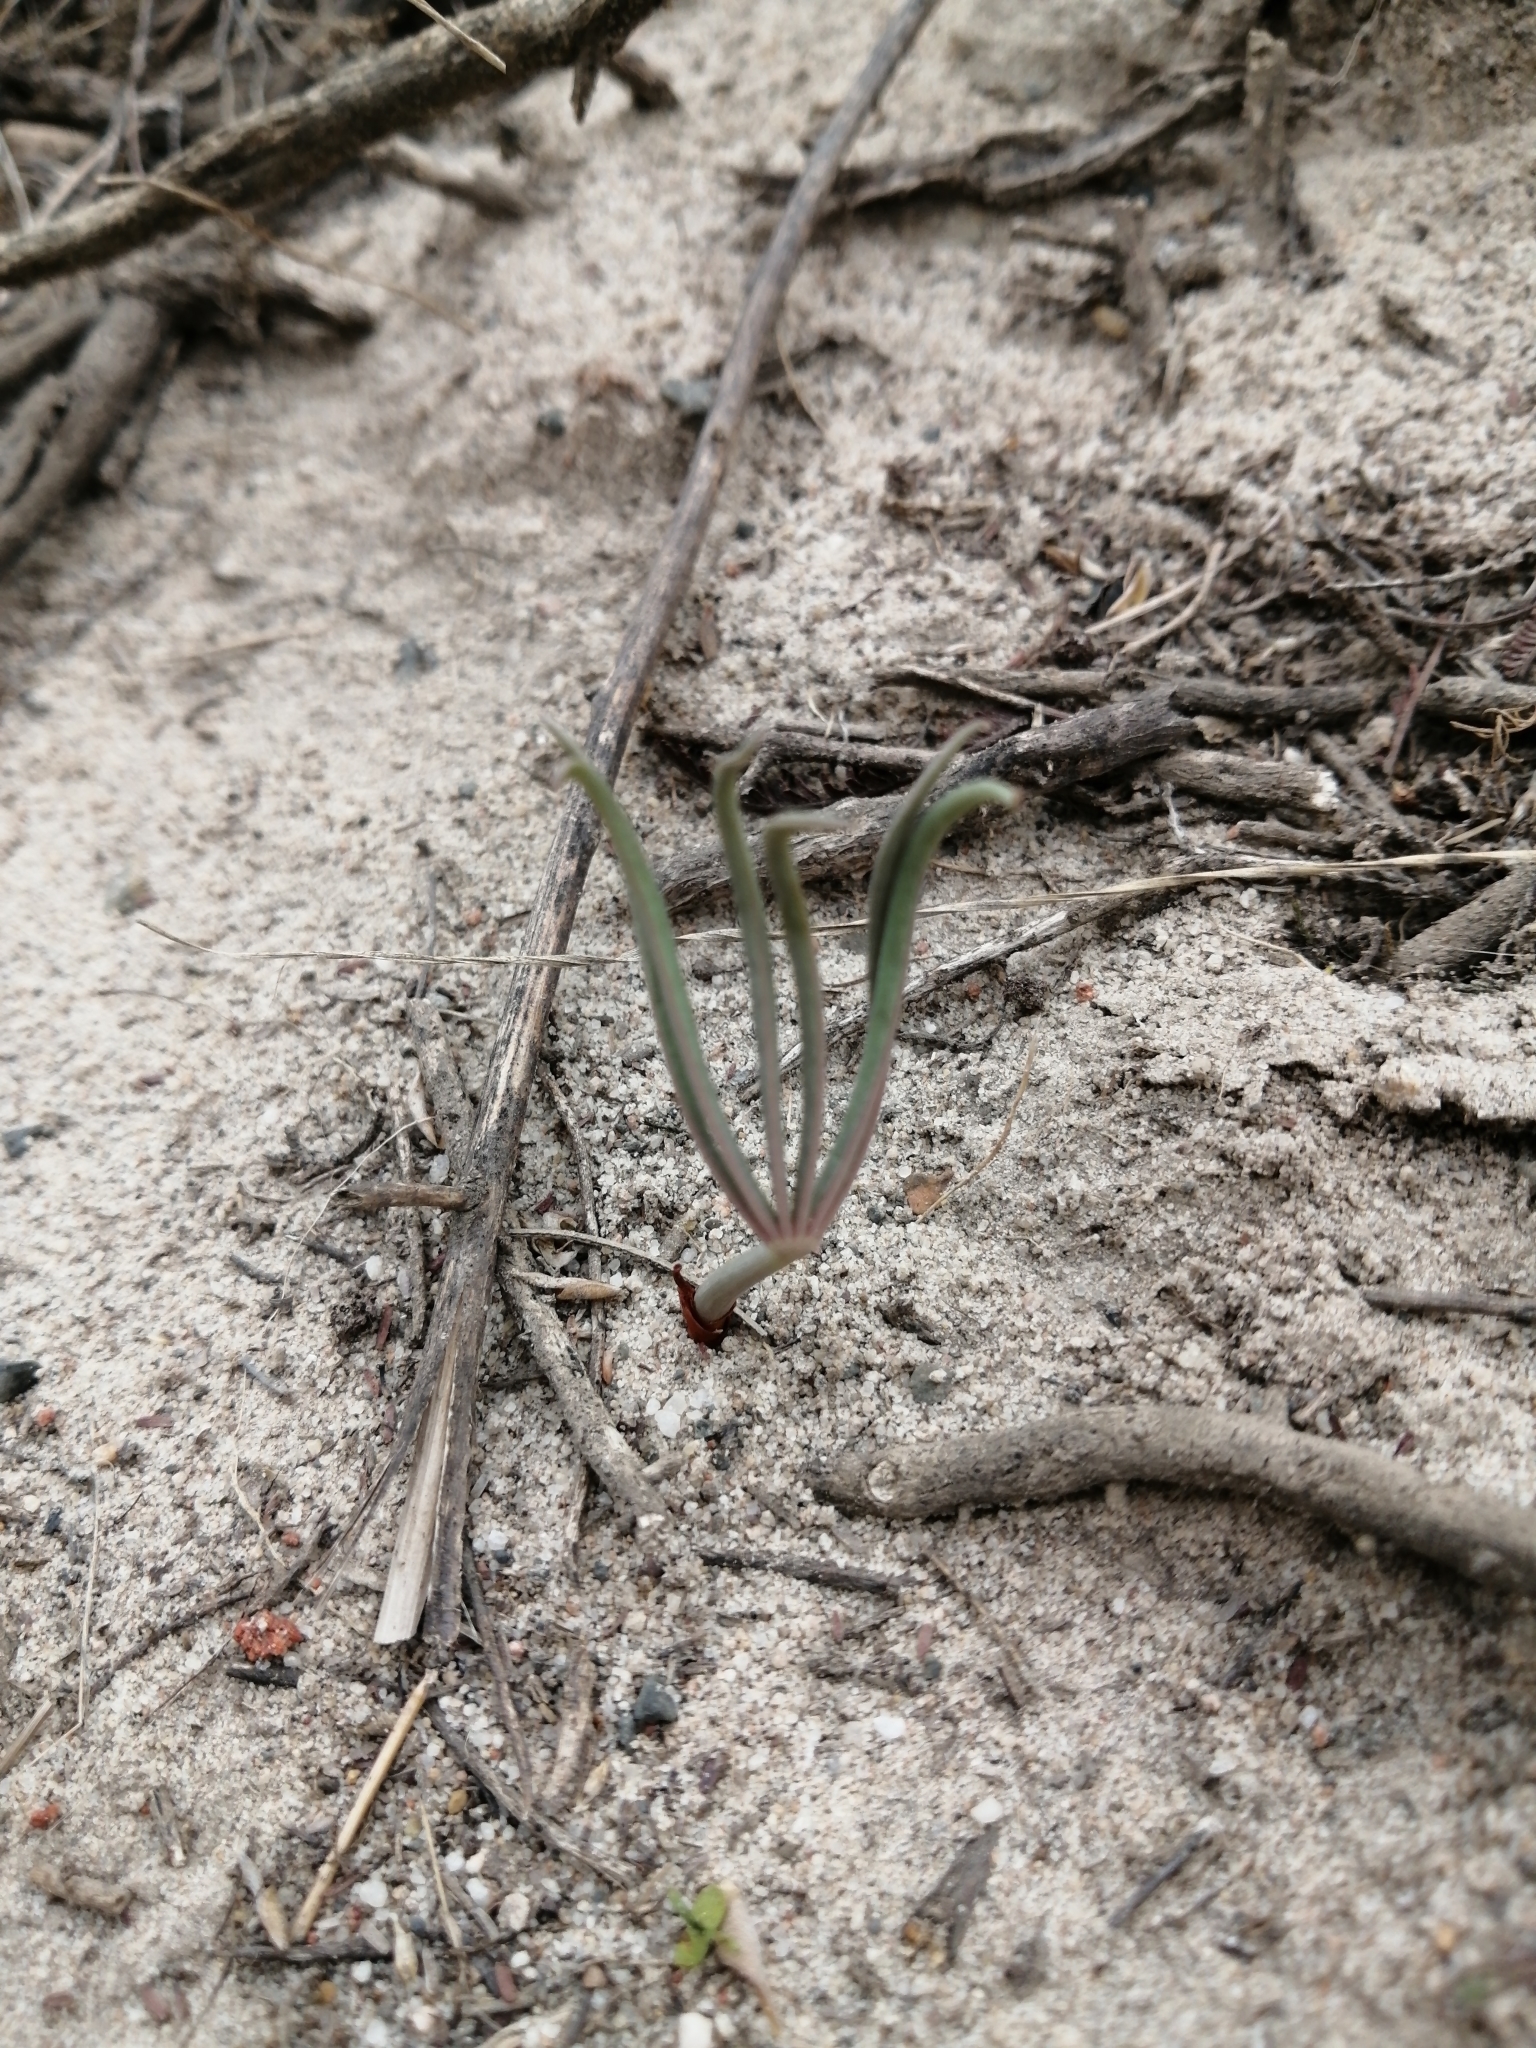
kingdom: Plantae
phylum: Tracheophyta
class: Magnoliopsida
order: Oxalidales
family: Oxalidaceae
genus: Oxalis
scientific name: Oxalis flava
